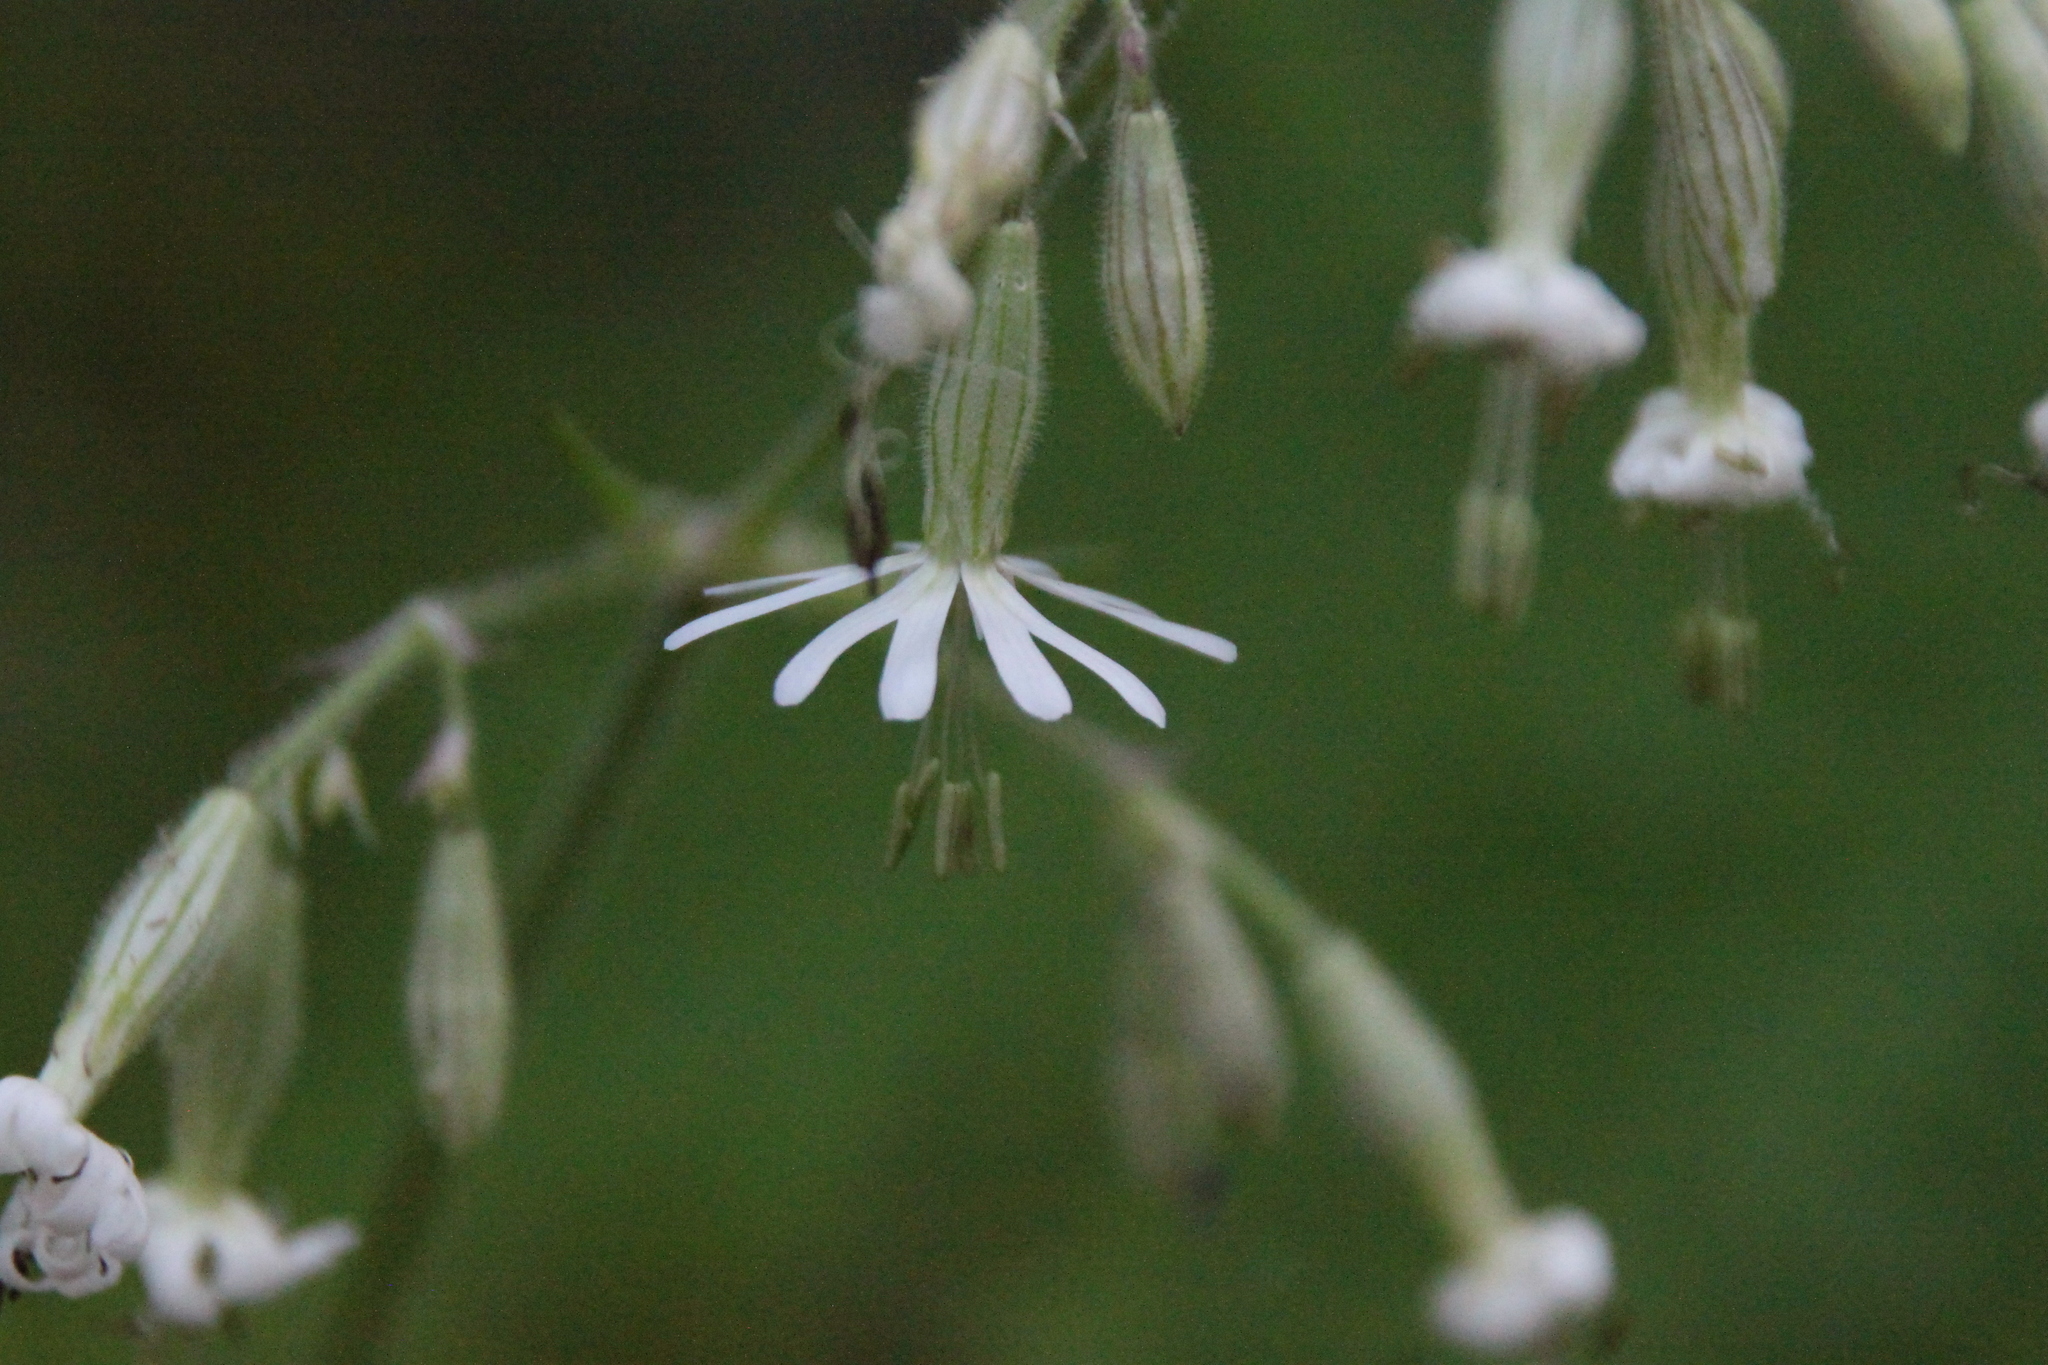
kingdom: Plantae
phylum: Tracheophyta
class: Magnoliopsida
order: Caryophyllales
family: Caryophyllaceae
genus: Silene
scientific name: Silene nutans
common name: Nottingham catchfly
